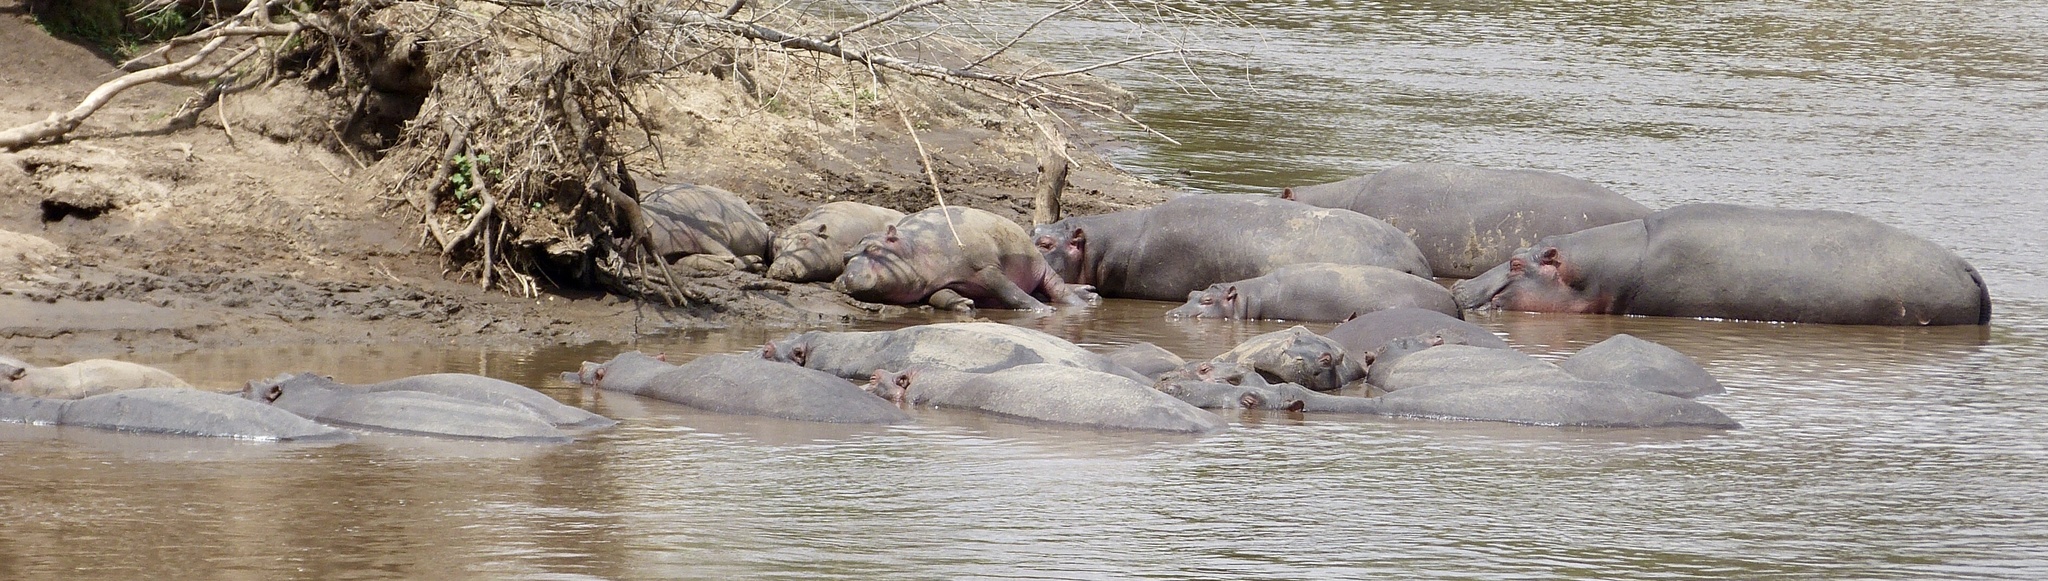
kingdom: Animalia
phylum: Chordata
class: Mammalia
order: Artiodactyla
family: Hippopotamidae
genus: Hippopotamus
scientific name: Hippopotamus amphibius
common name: Common hippopotamus
